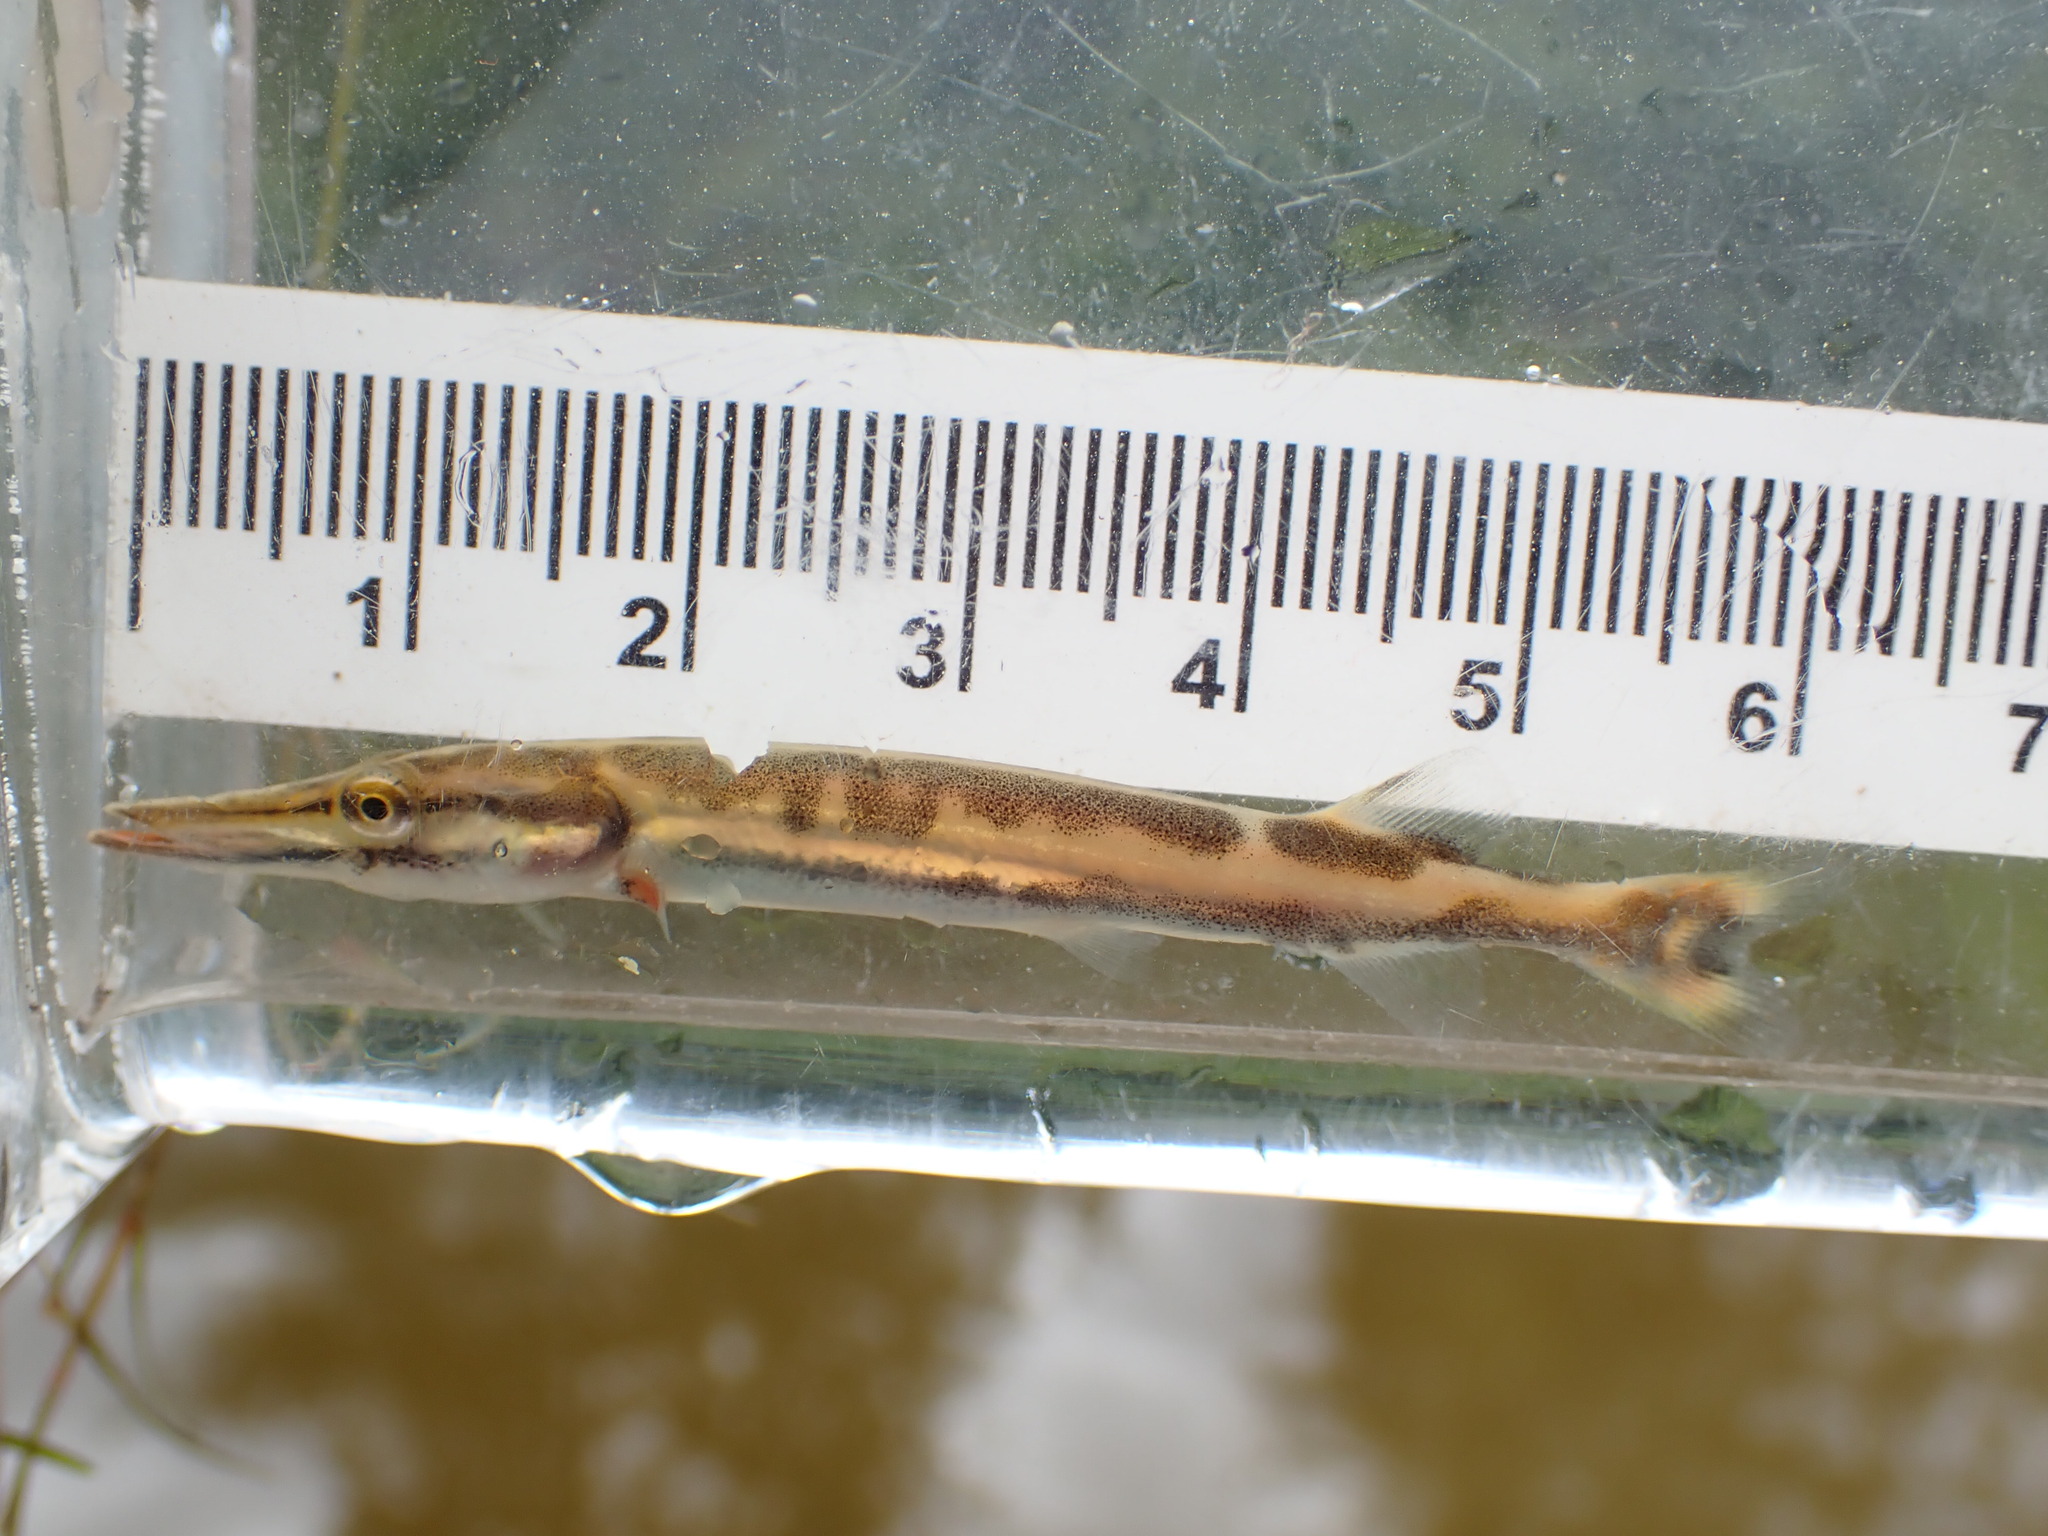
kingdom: Animalia
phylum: Chordata
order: Esociformes
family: Esocidae
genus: Esox
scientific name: Esox masquinongy
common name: Muskellunge
